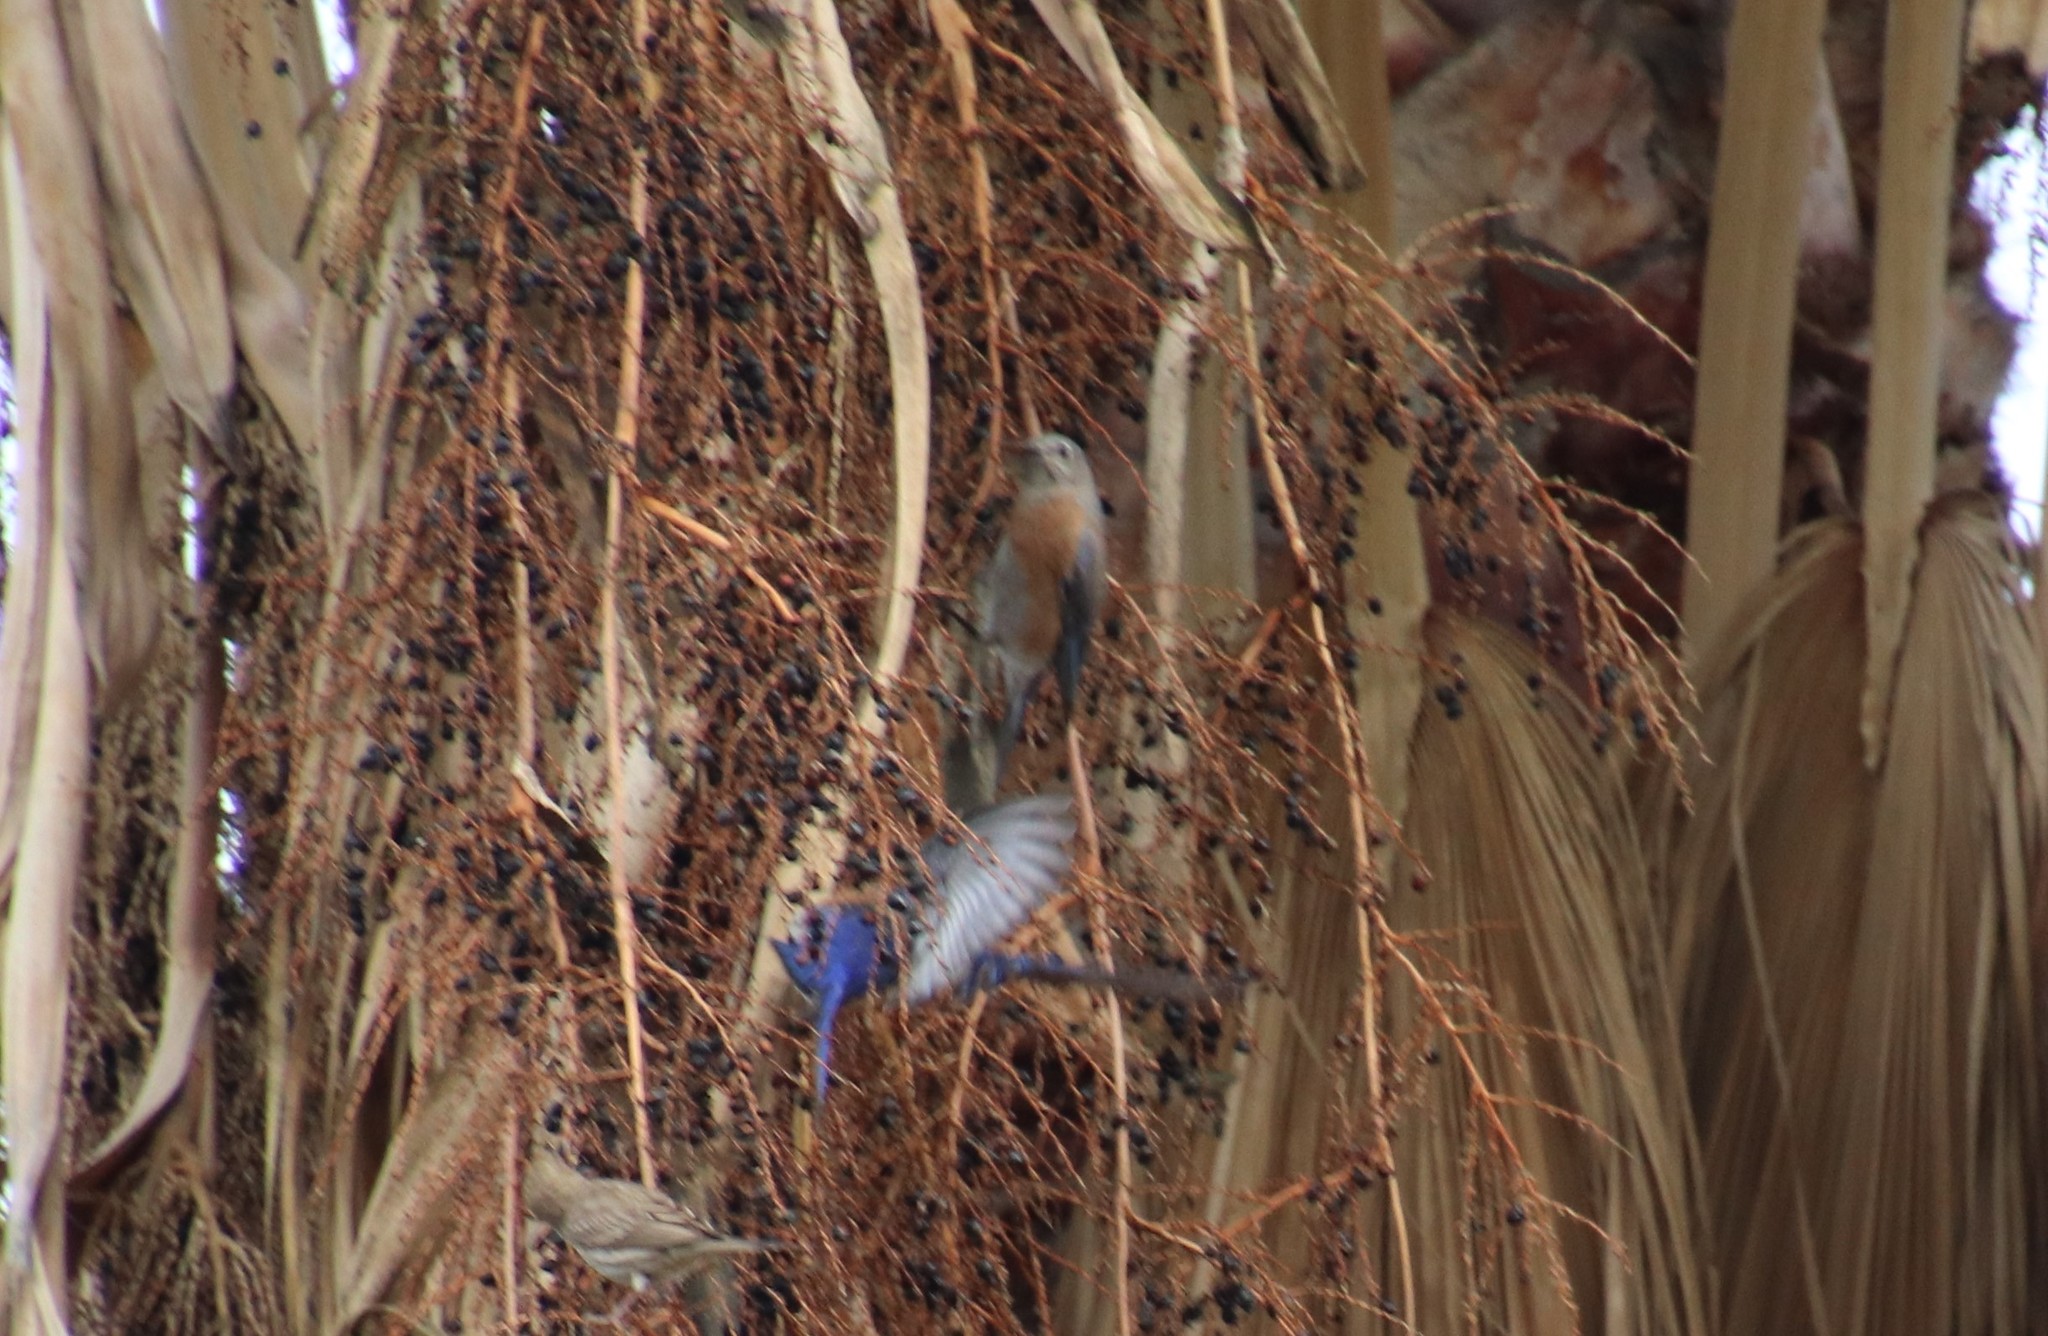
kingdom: Animalia
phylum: Chordata
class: Aves
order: Passeriformes
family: Turdidae
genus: Sialia
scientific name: Sialia mexicana
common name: Western bluebird
